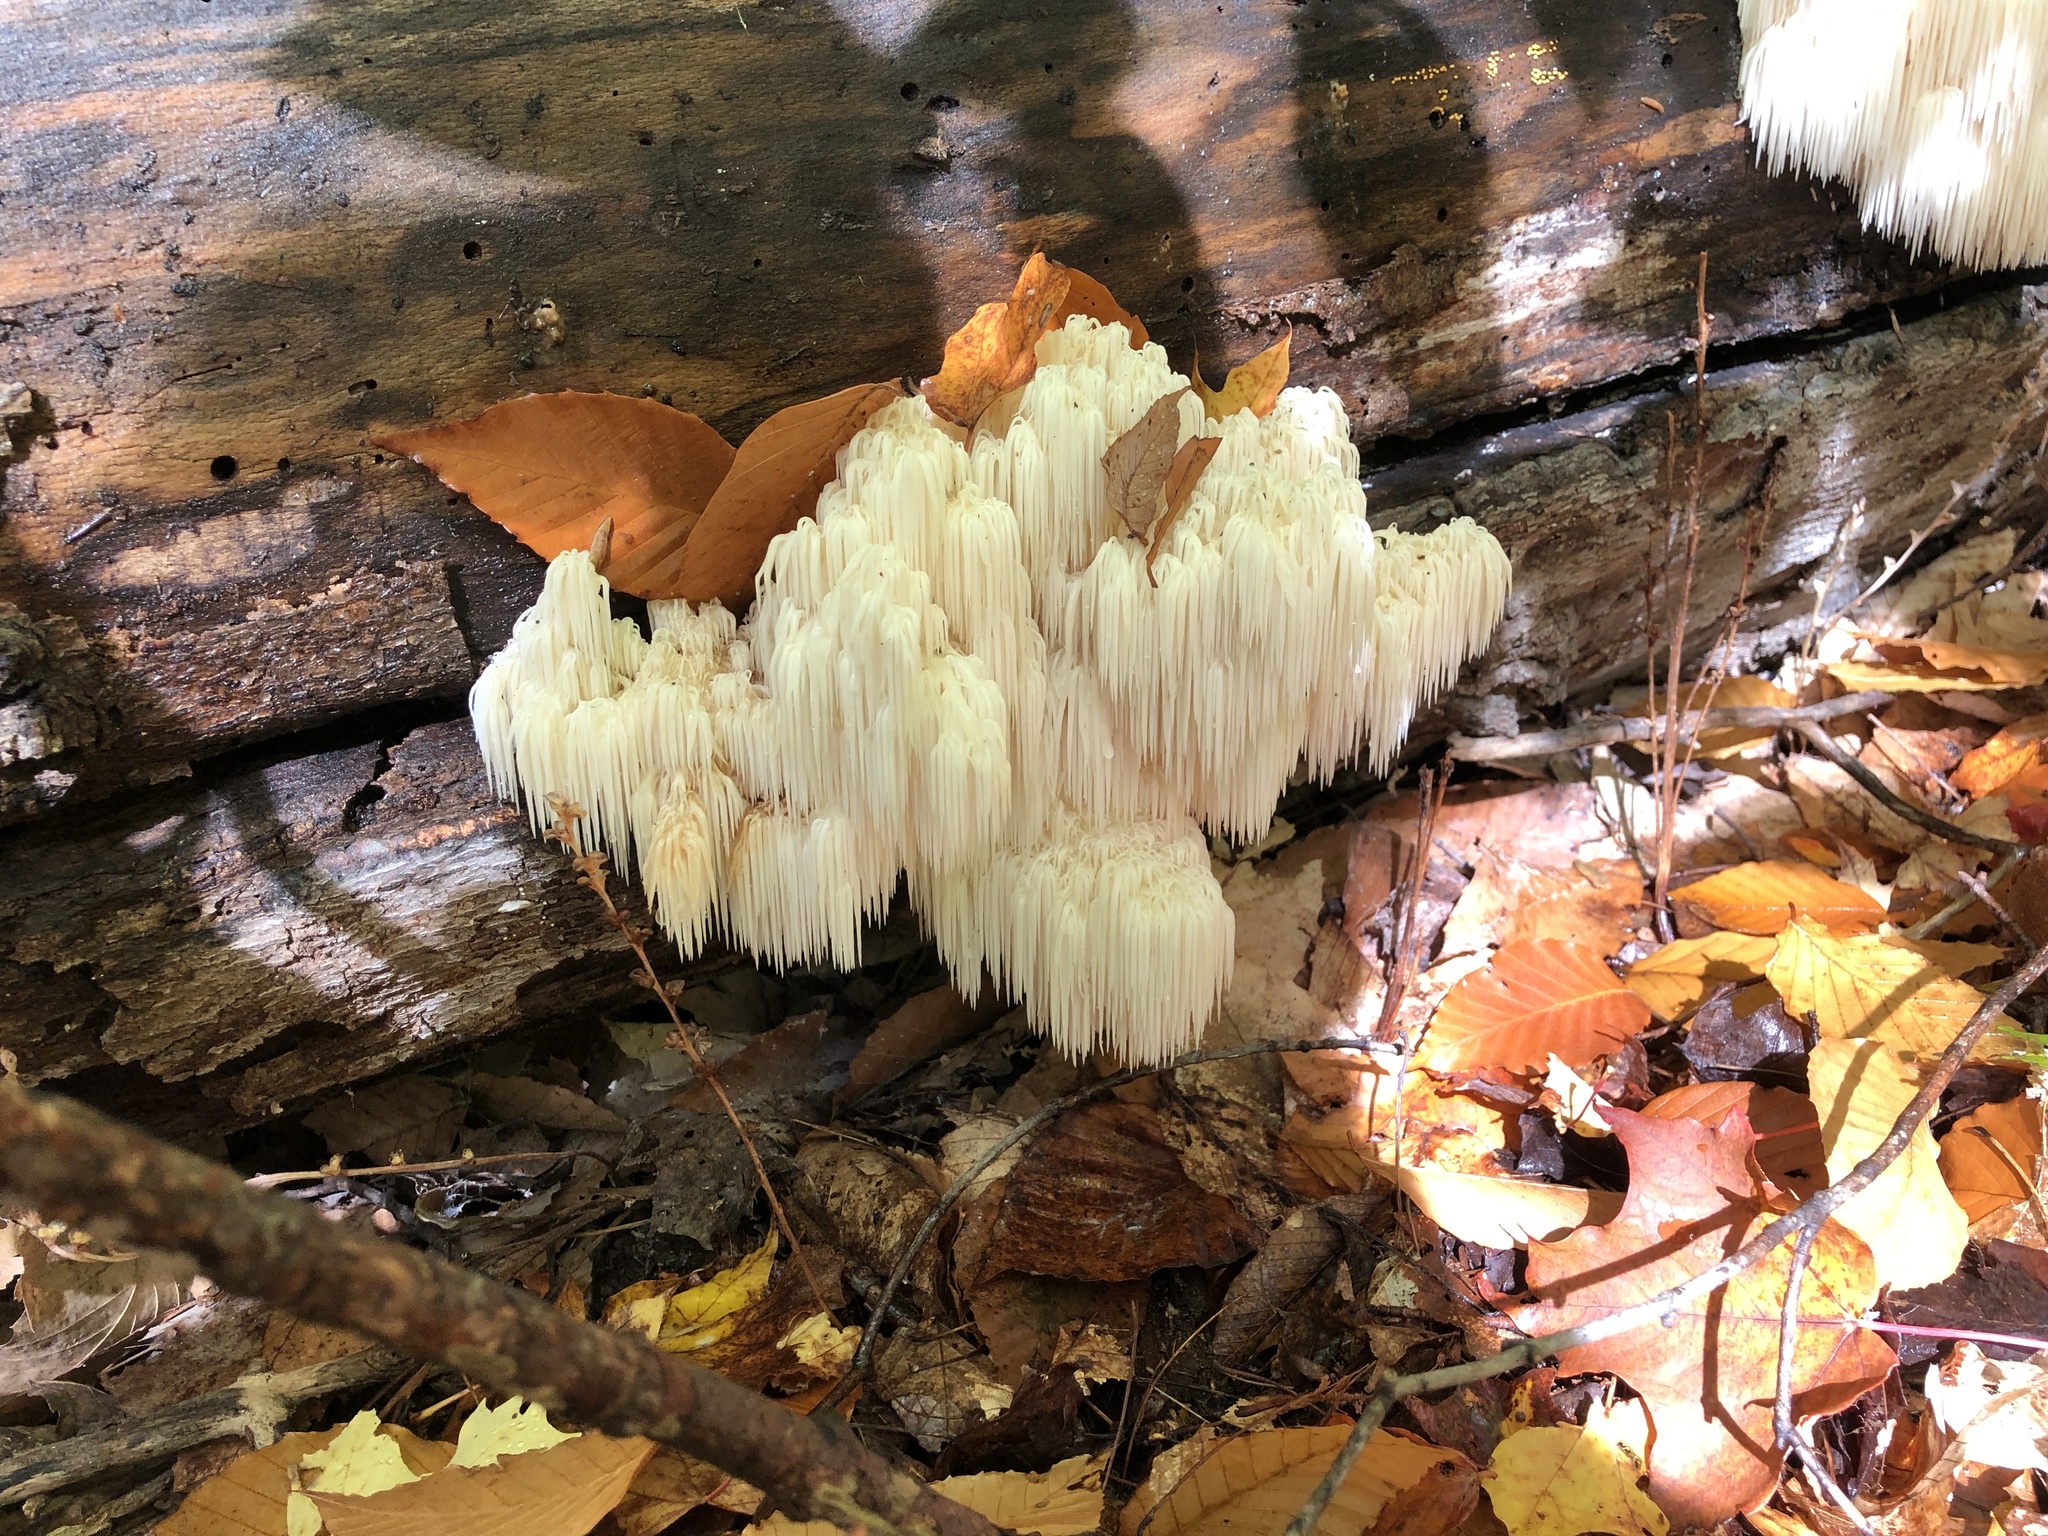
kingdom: Fungi
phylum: Basidiomycota
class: Agaricomycetes
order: Russulales
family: Hericiaceae
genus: Hericium
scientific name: Hericium americanum
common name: Bear's head tooth
